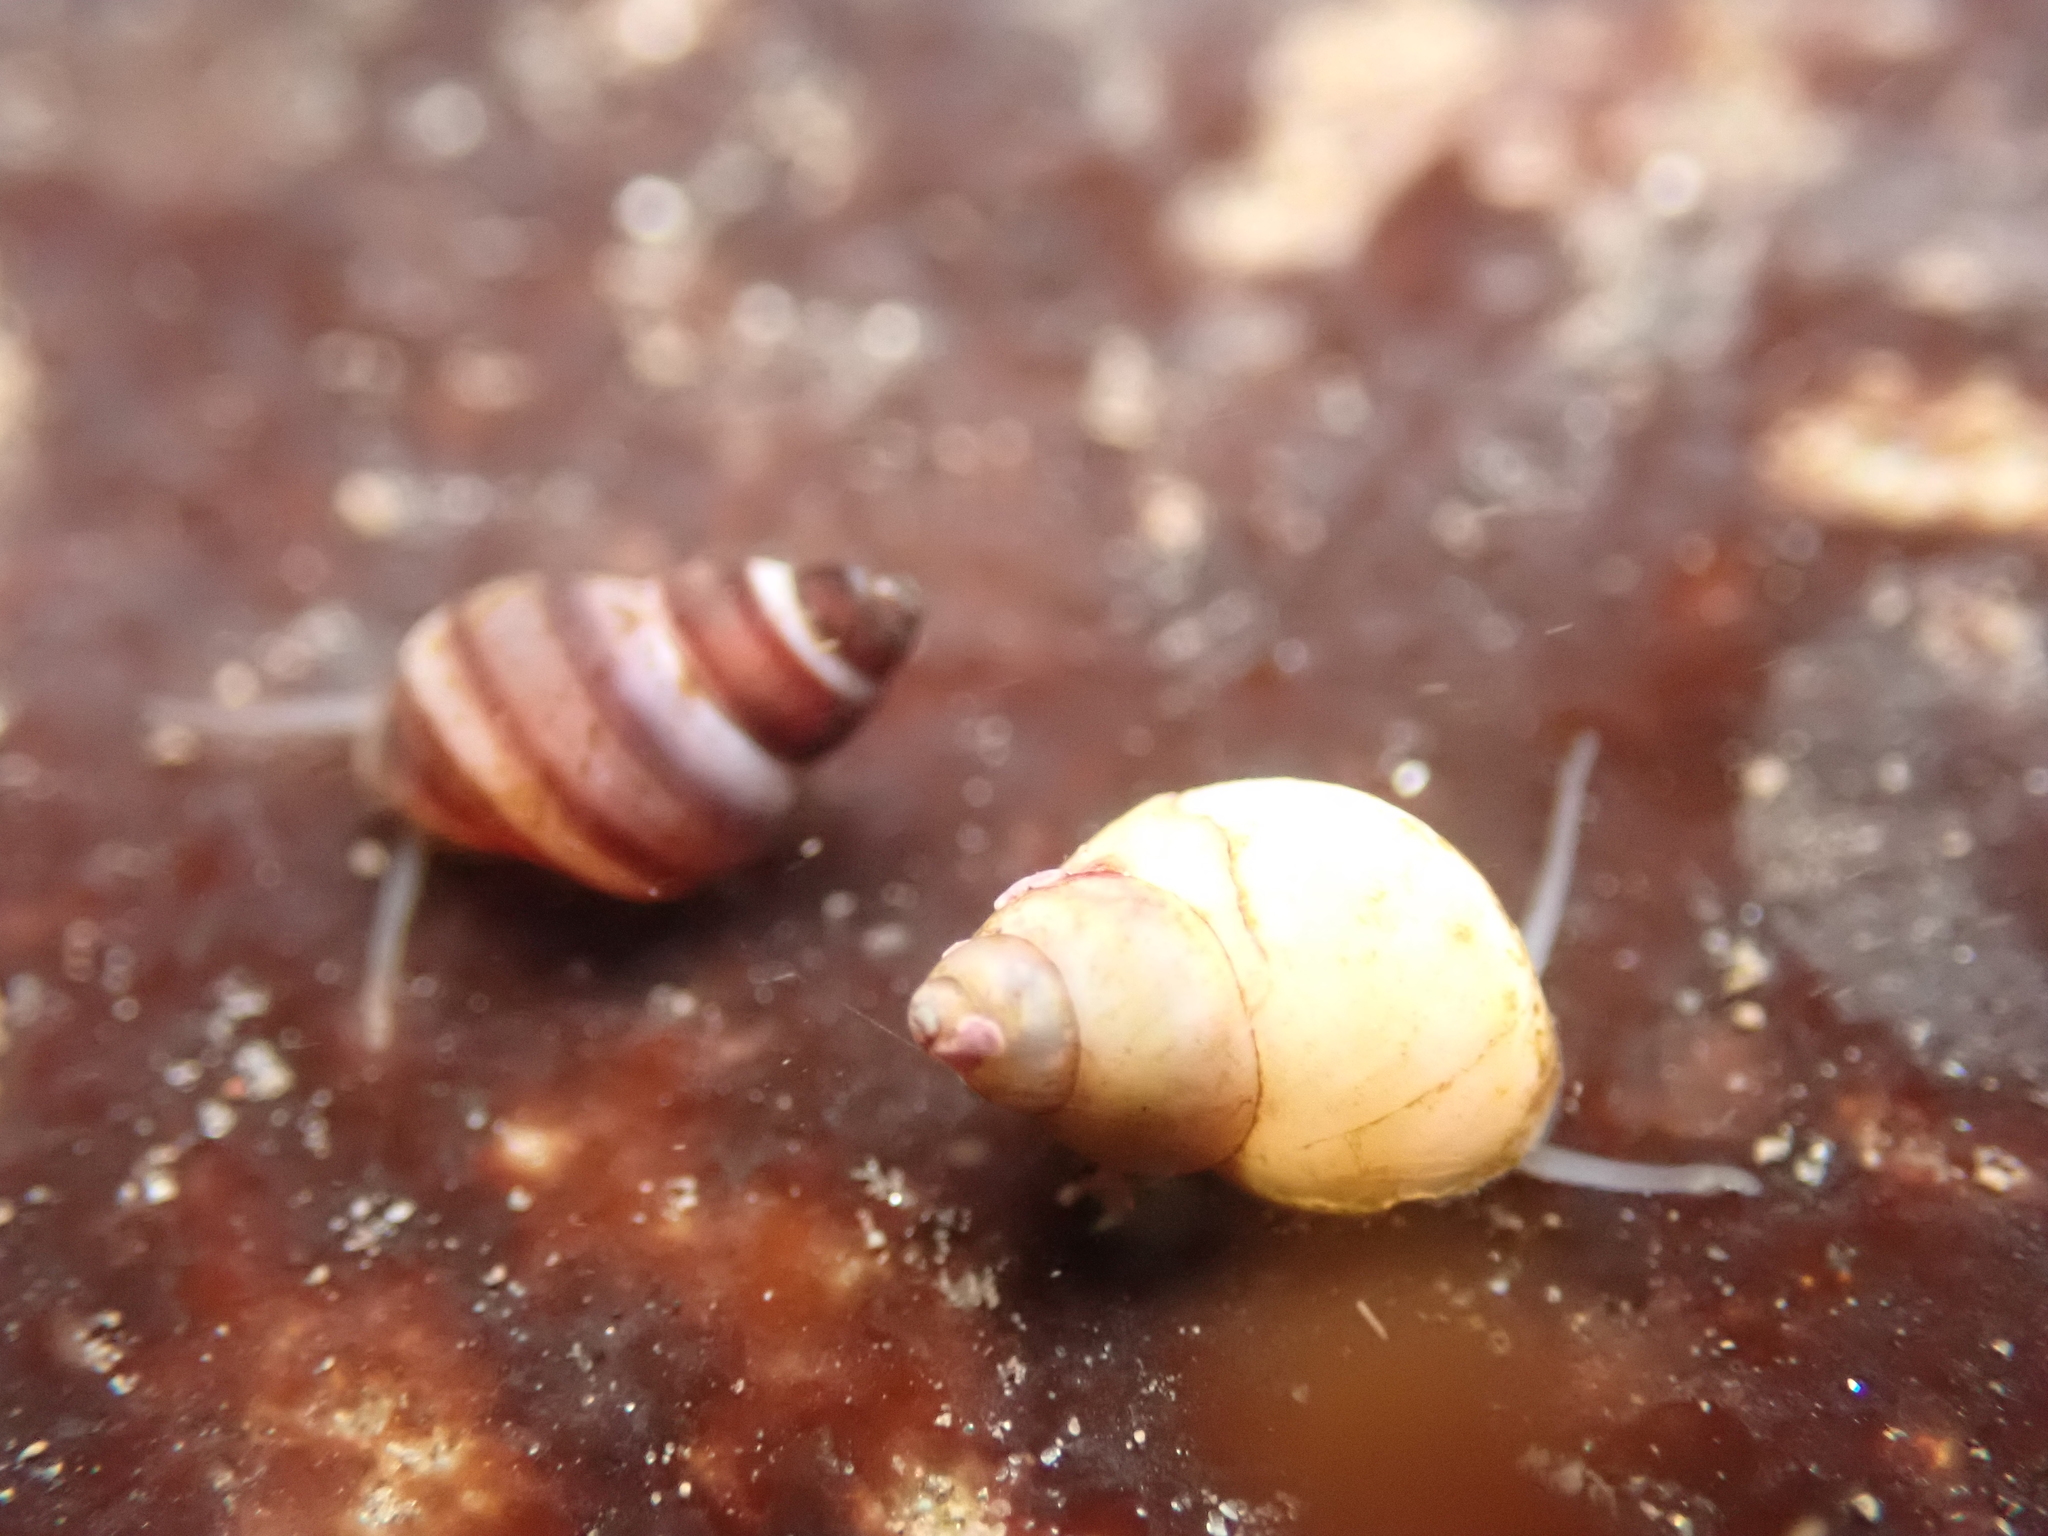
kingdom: Animalia
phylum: Mollusca
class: Gastropoda
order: Littorinimorpha
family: Littorinidae
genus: Lacuna
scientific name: Lacuna vincta
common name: Banded chink shell
